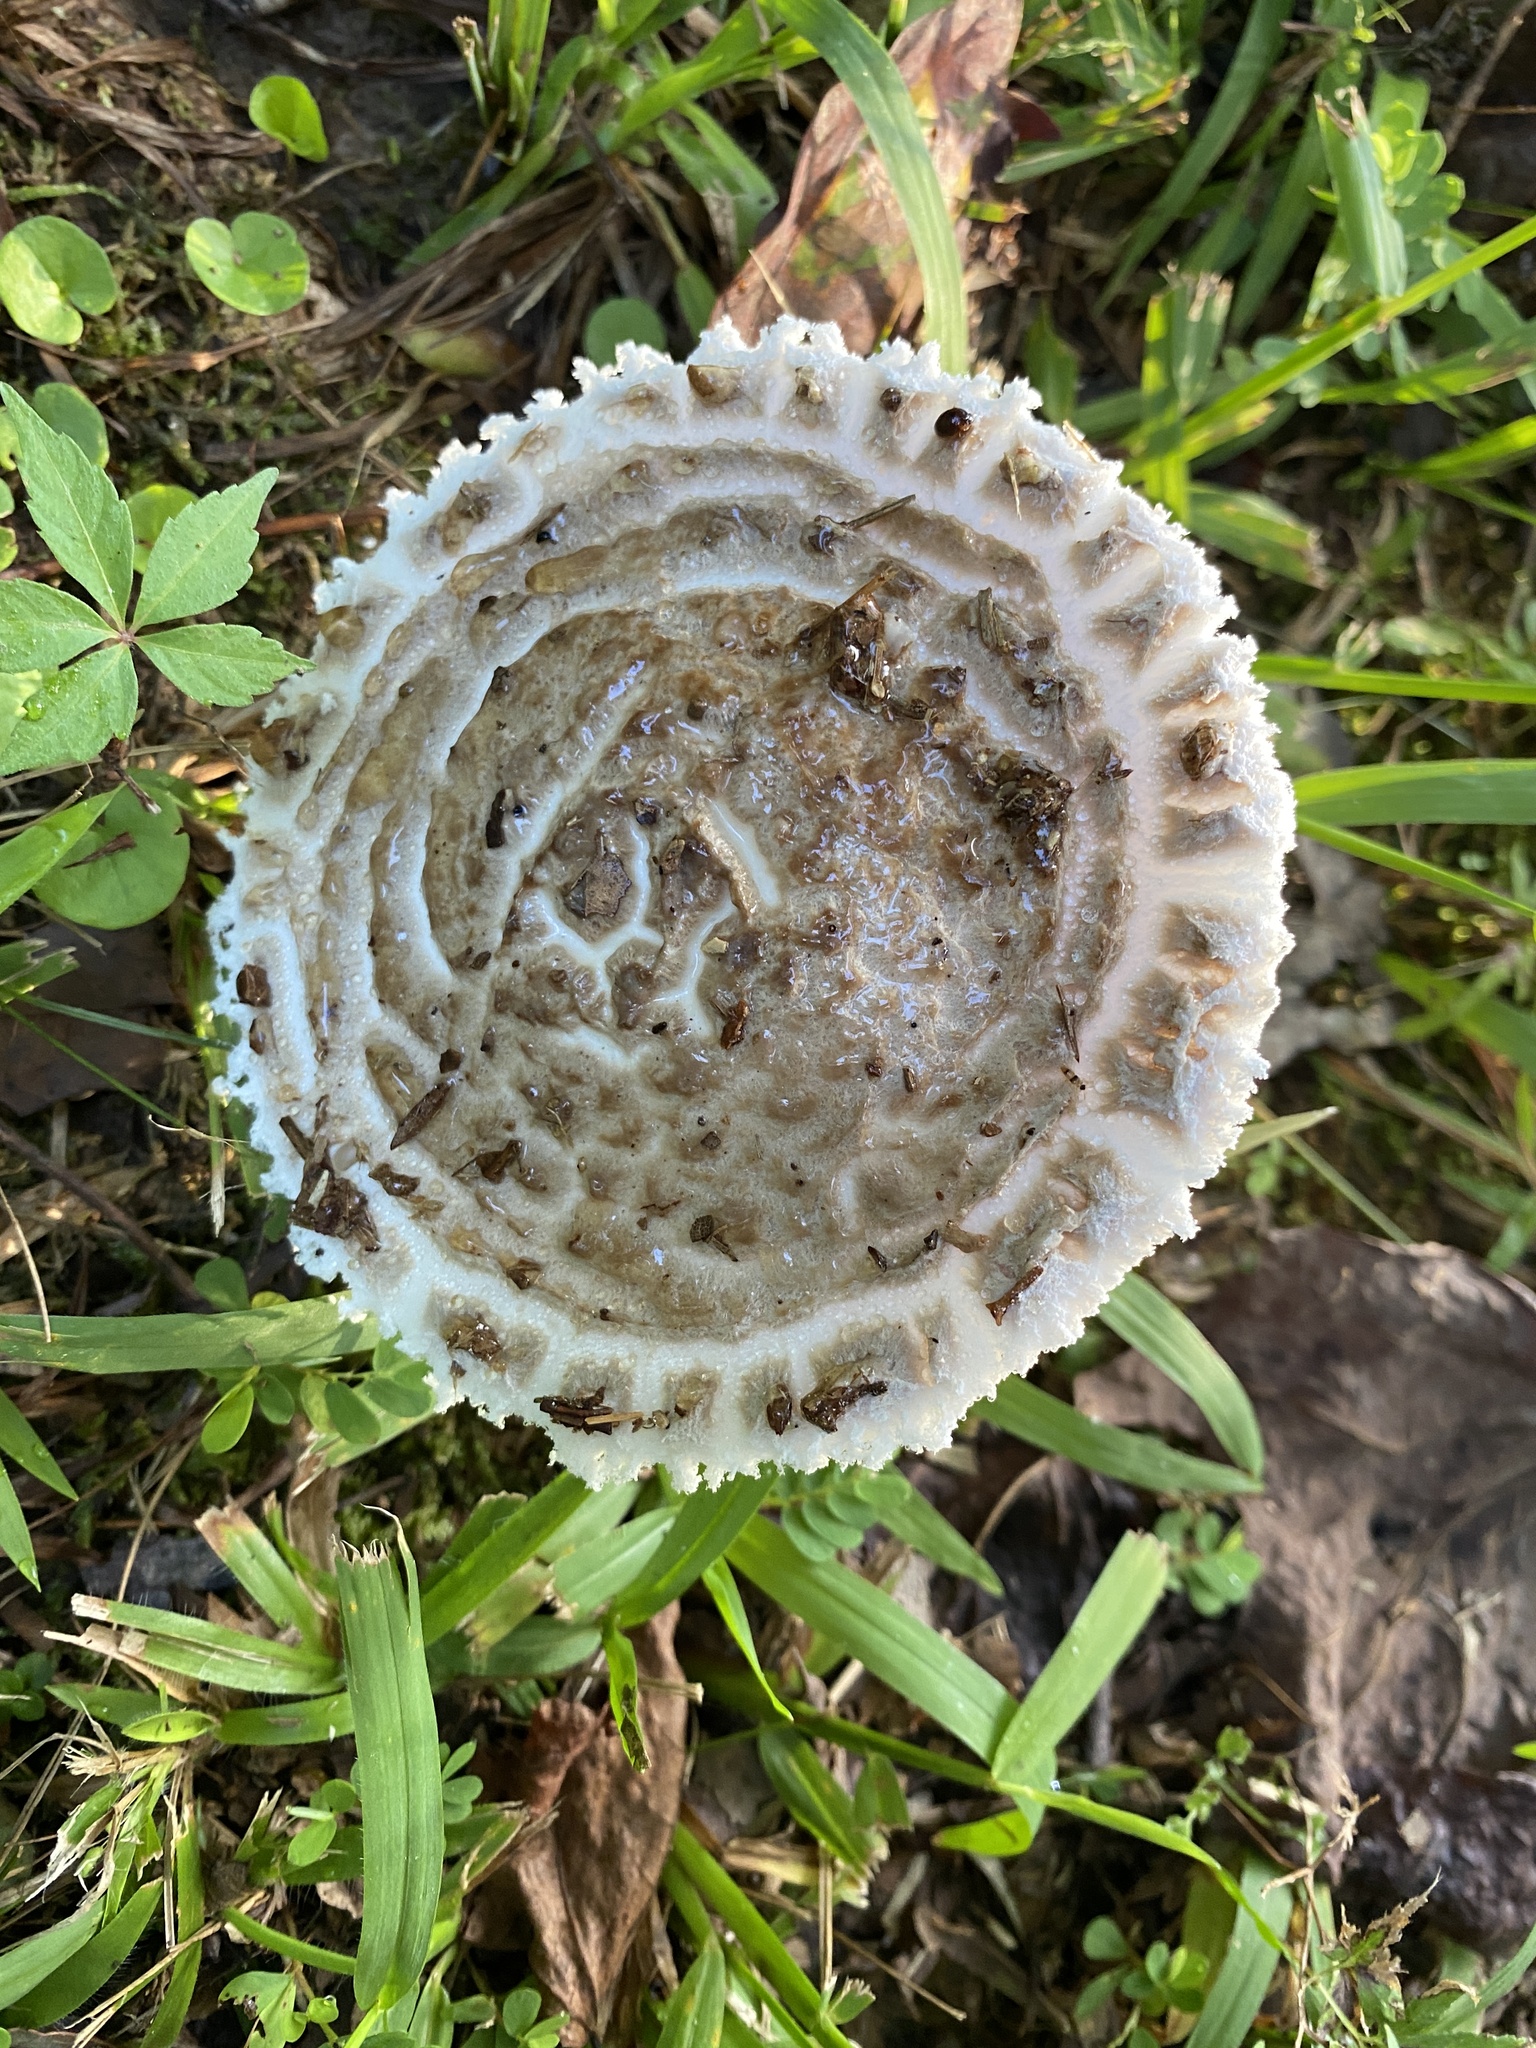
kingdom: Fungi
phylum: Basidiomycota
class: Agaricomycetes
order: Agaricales
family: Amanitaceae
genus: Aspidella
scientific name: Aspidella hesleri
